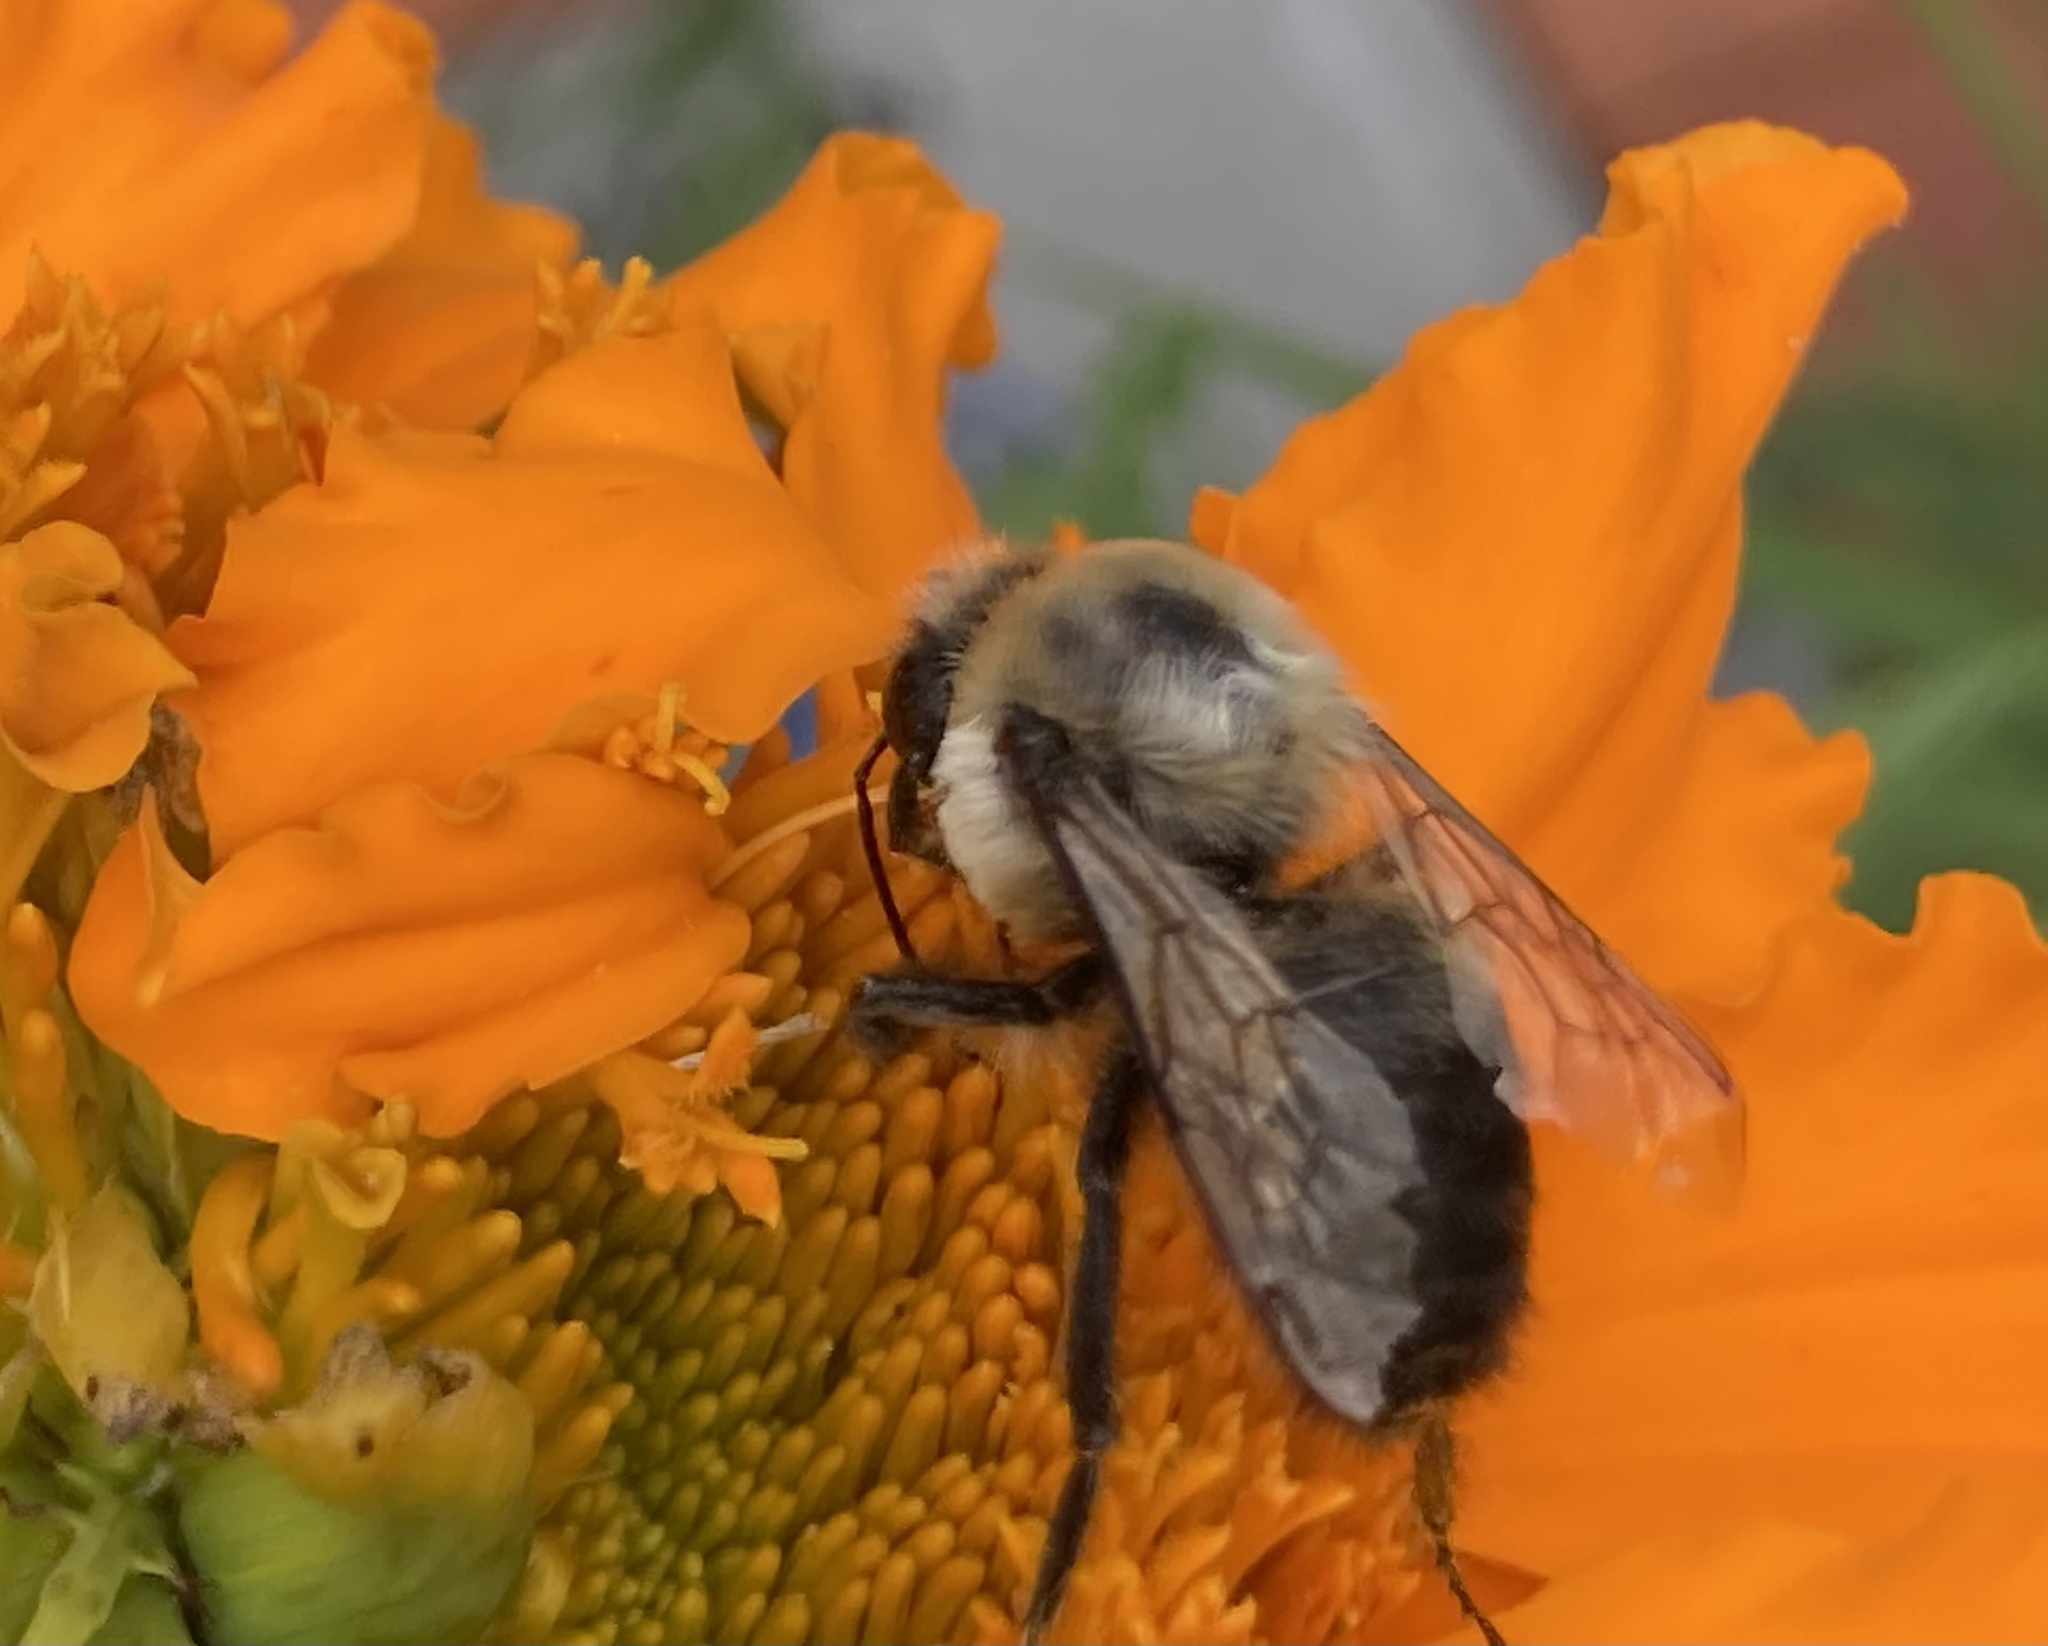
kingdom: Animalia
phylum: Arthropoda
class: Insecta
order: Hymenoptera
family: Apidae
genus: Bombus
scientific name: Bombus griseocollis
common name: Brown-belted bumble bee
